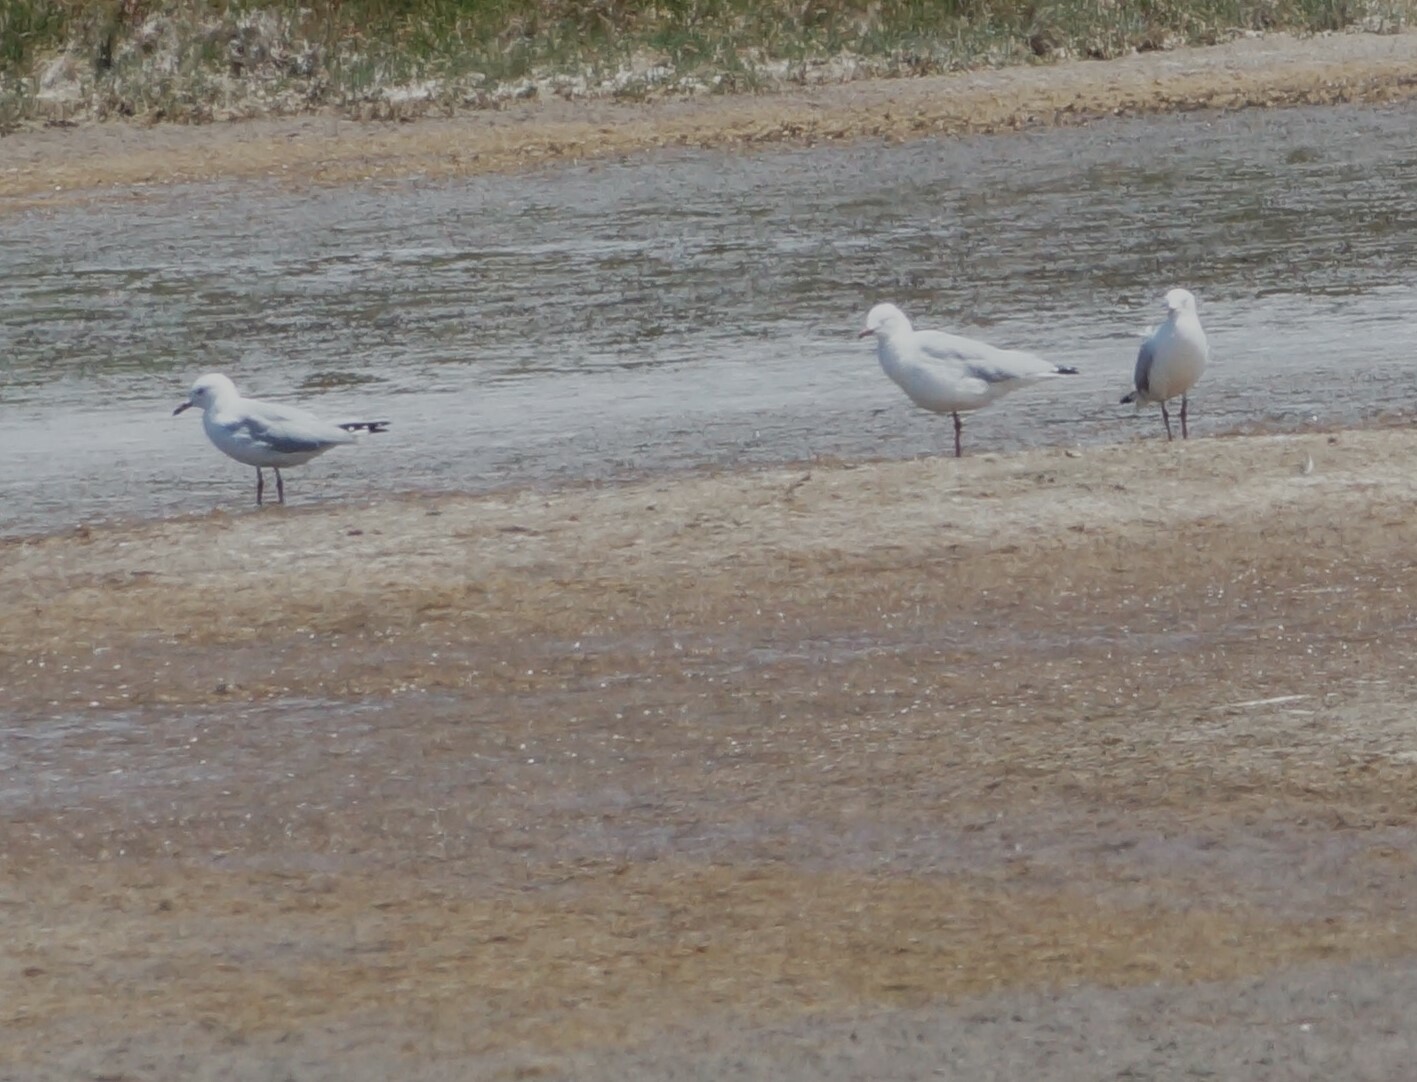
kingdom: Animalia
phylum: Chordata
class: Aves
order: Charadriiformes
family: Laridae
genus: Chroicocephalus
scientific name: Chroicocephalus novaehollandiae
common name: Silver gull
